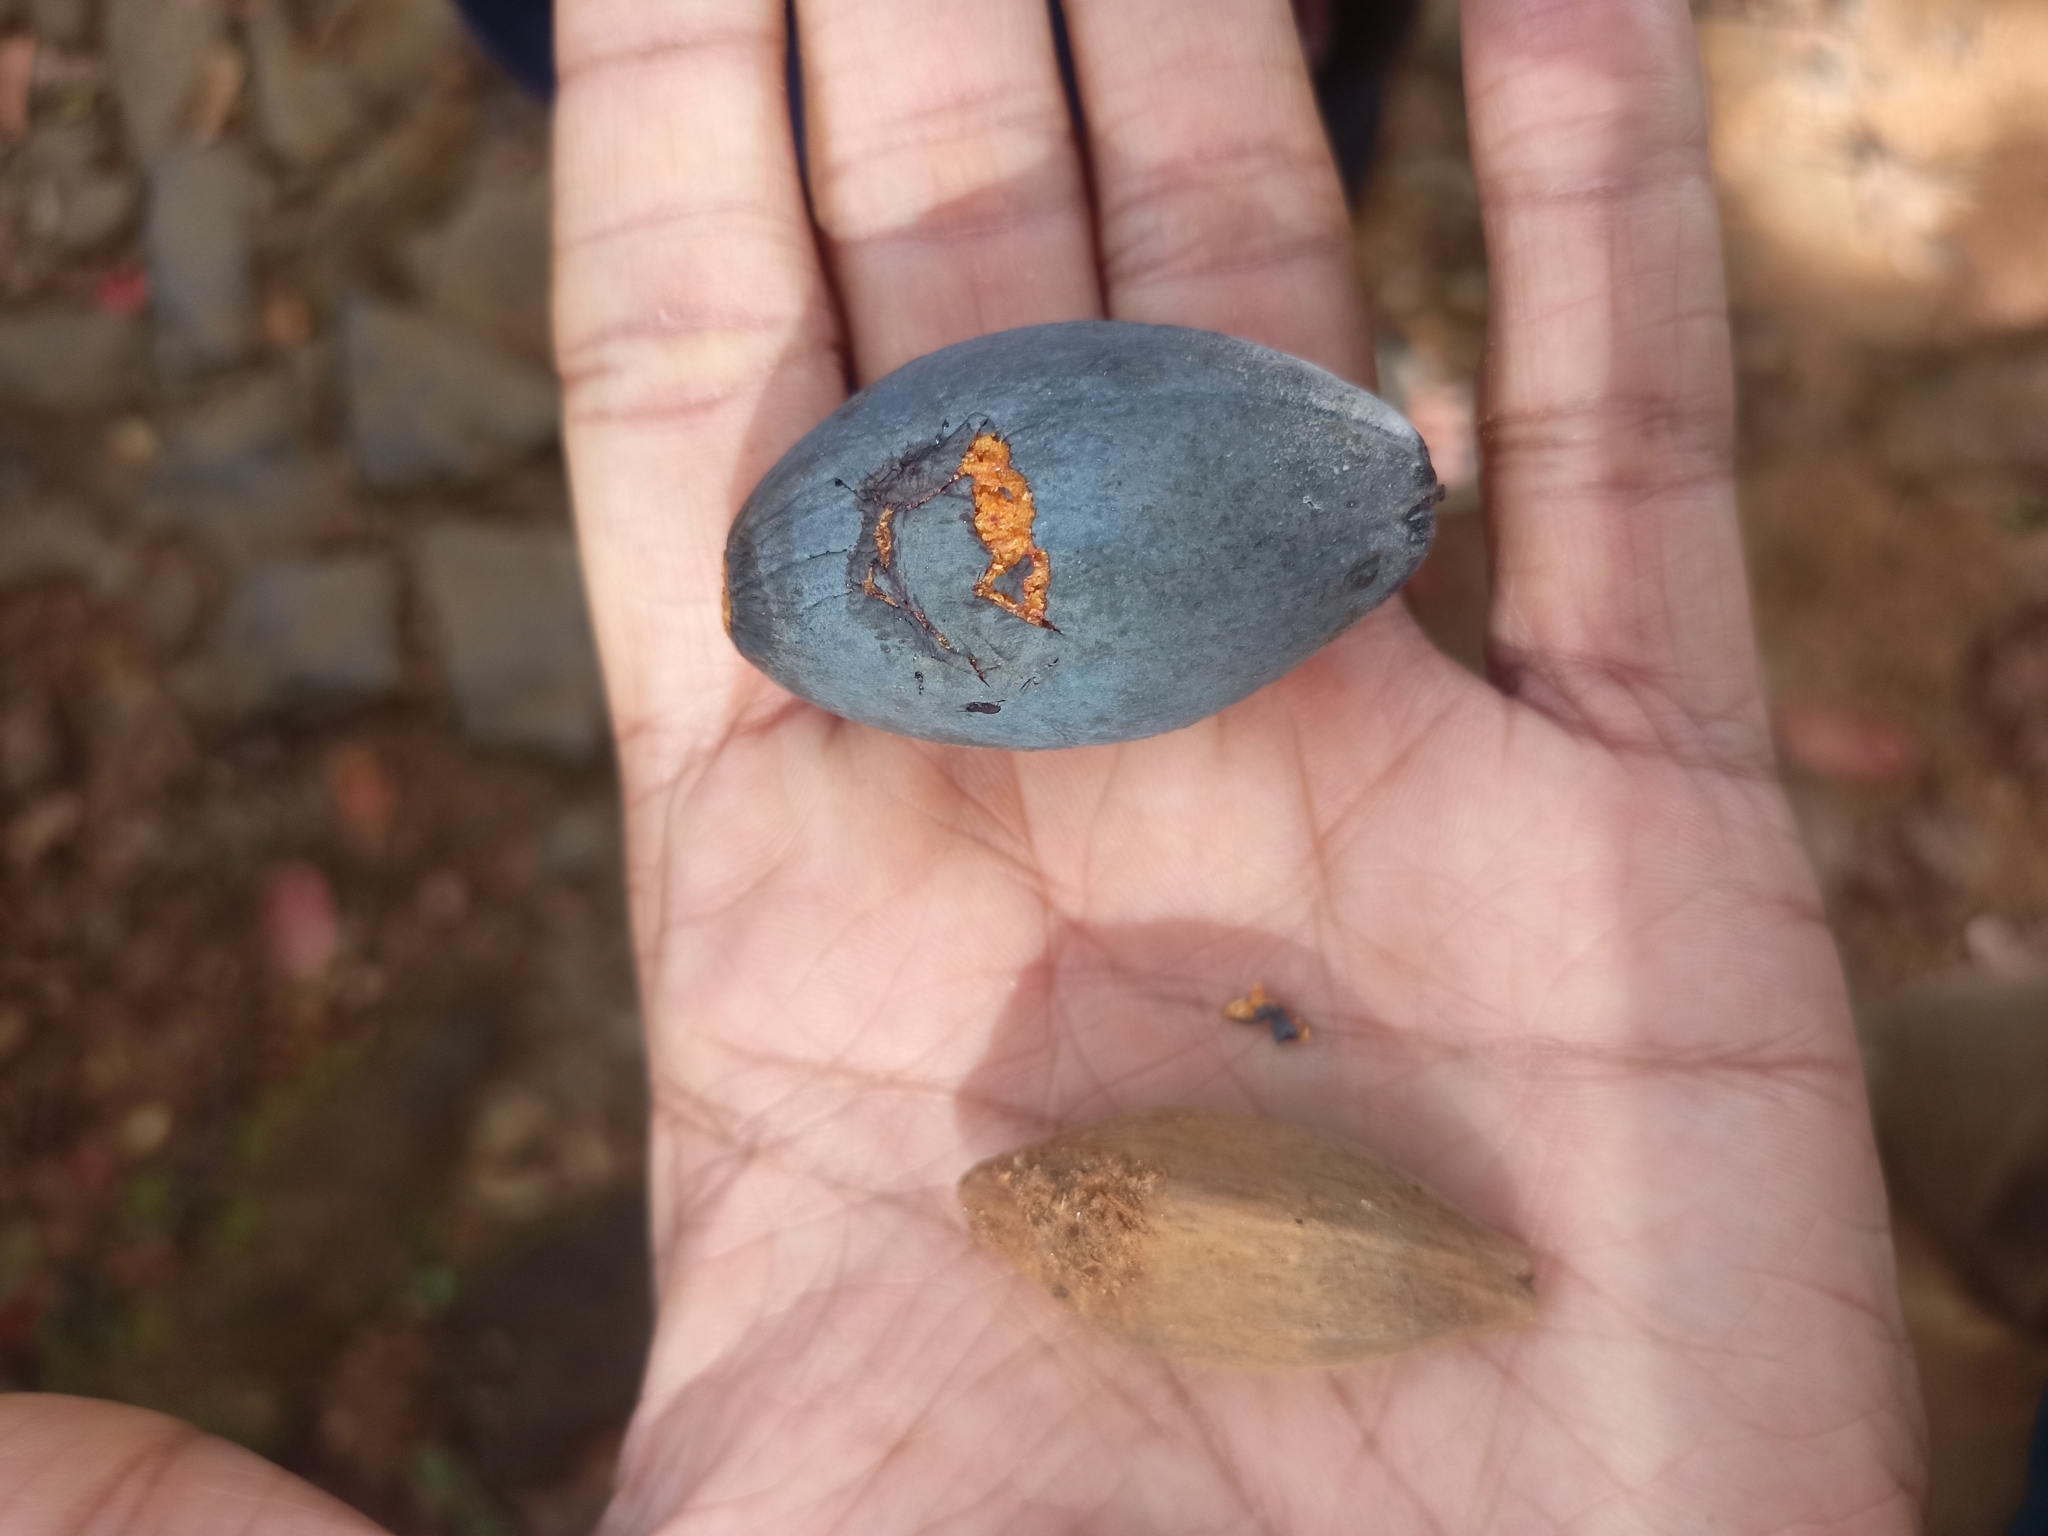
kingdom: Plantae
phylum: Tracheophyta
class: Magnoliopsida
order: Sapindales
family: Burseraceae
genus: Canarium
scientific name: Canarium strictum
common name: Indian white-mahogany
